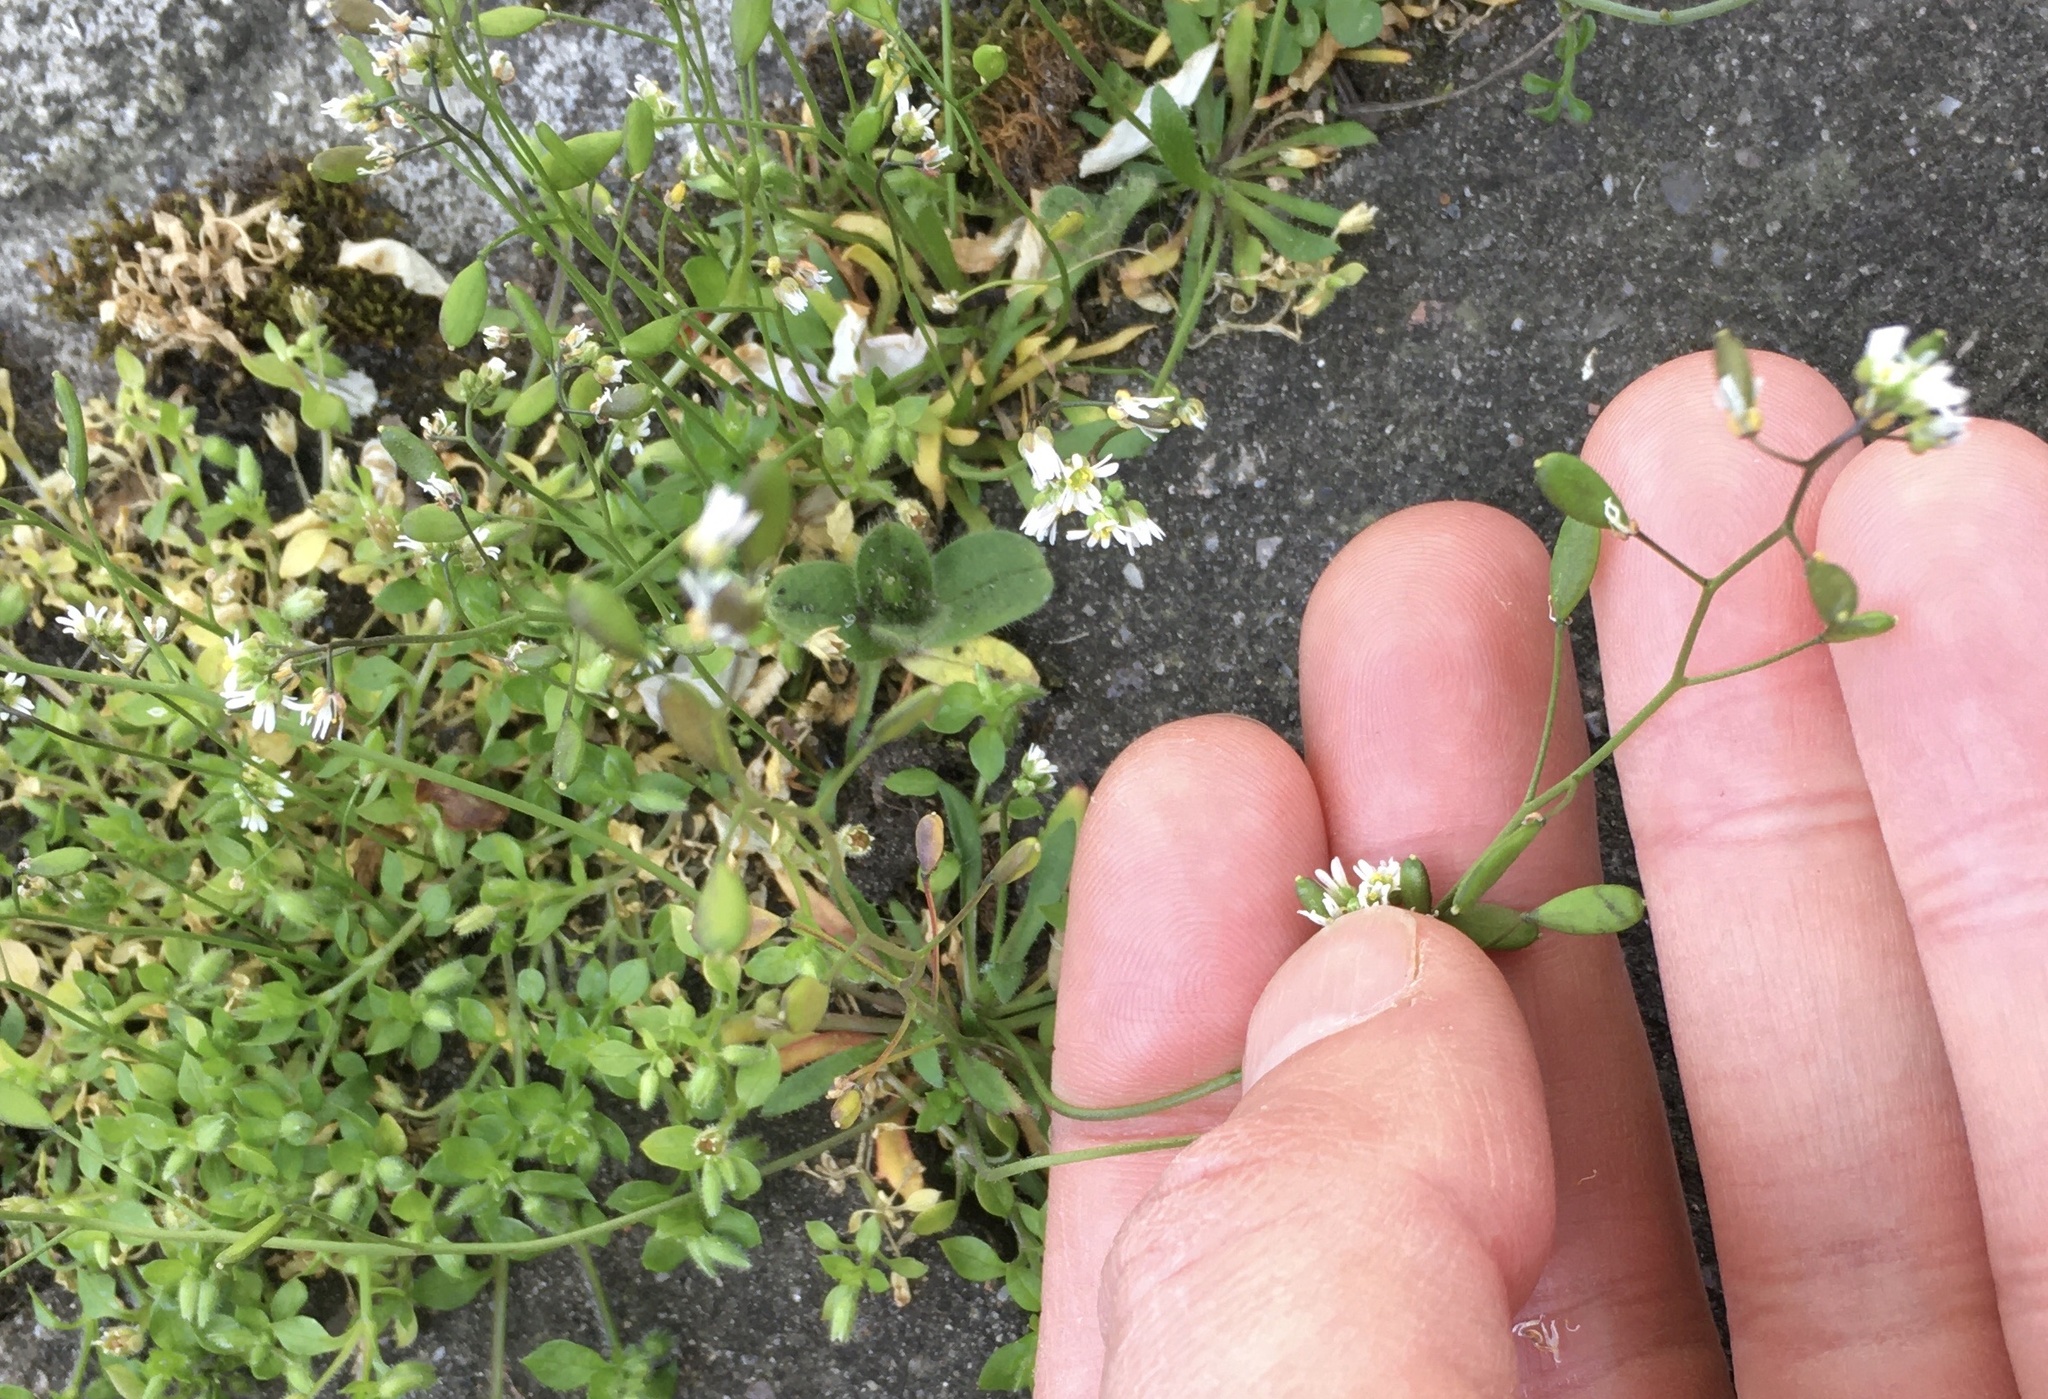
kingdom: Plantae
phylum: Tracheophyta
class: Magnoliopsida
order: Brassicales
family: Brassicaceae
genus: Draba
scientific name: Draba verna
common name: Spring draba
